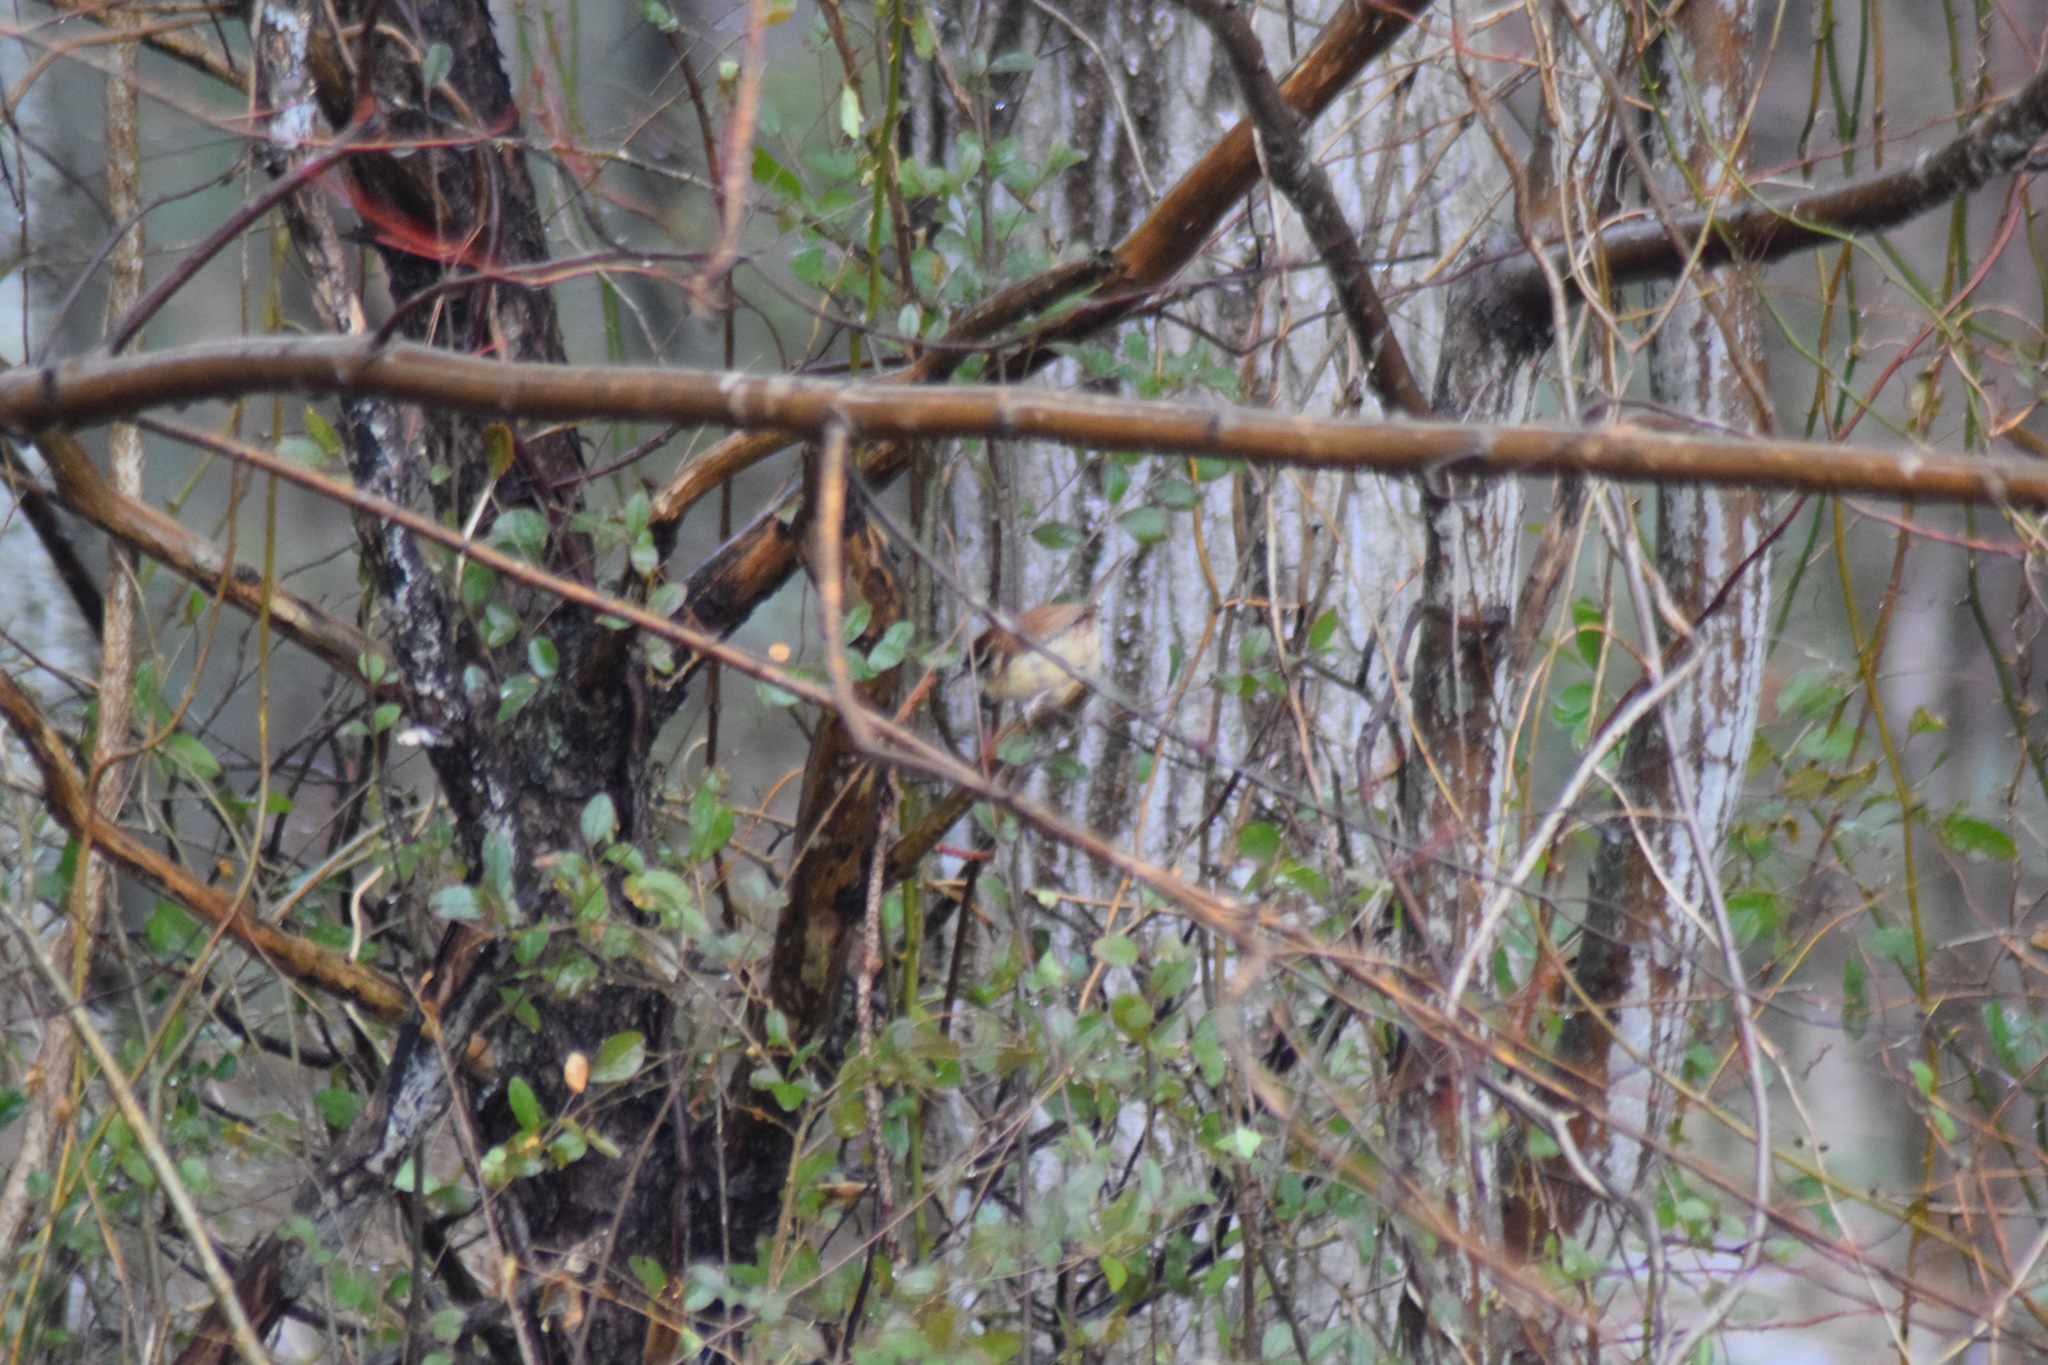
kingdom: Animalia
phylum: Chordata
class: Aves
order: Passeriformes
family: Troglodytidae
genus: Thryothorus
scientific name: Thryothorus ludovicianus
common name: Carolina wren
